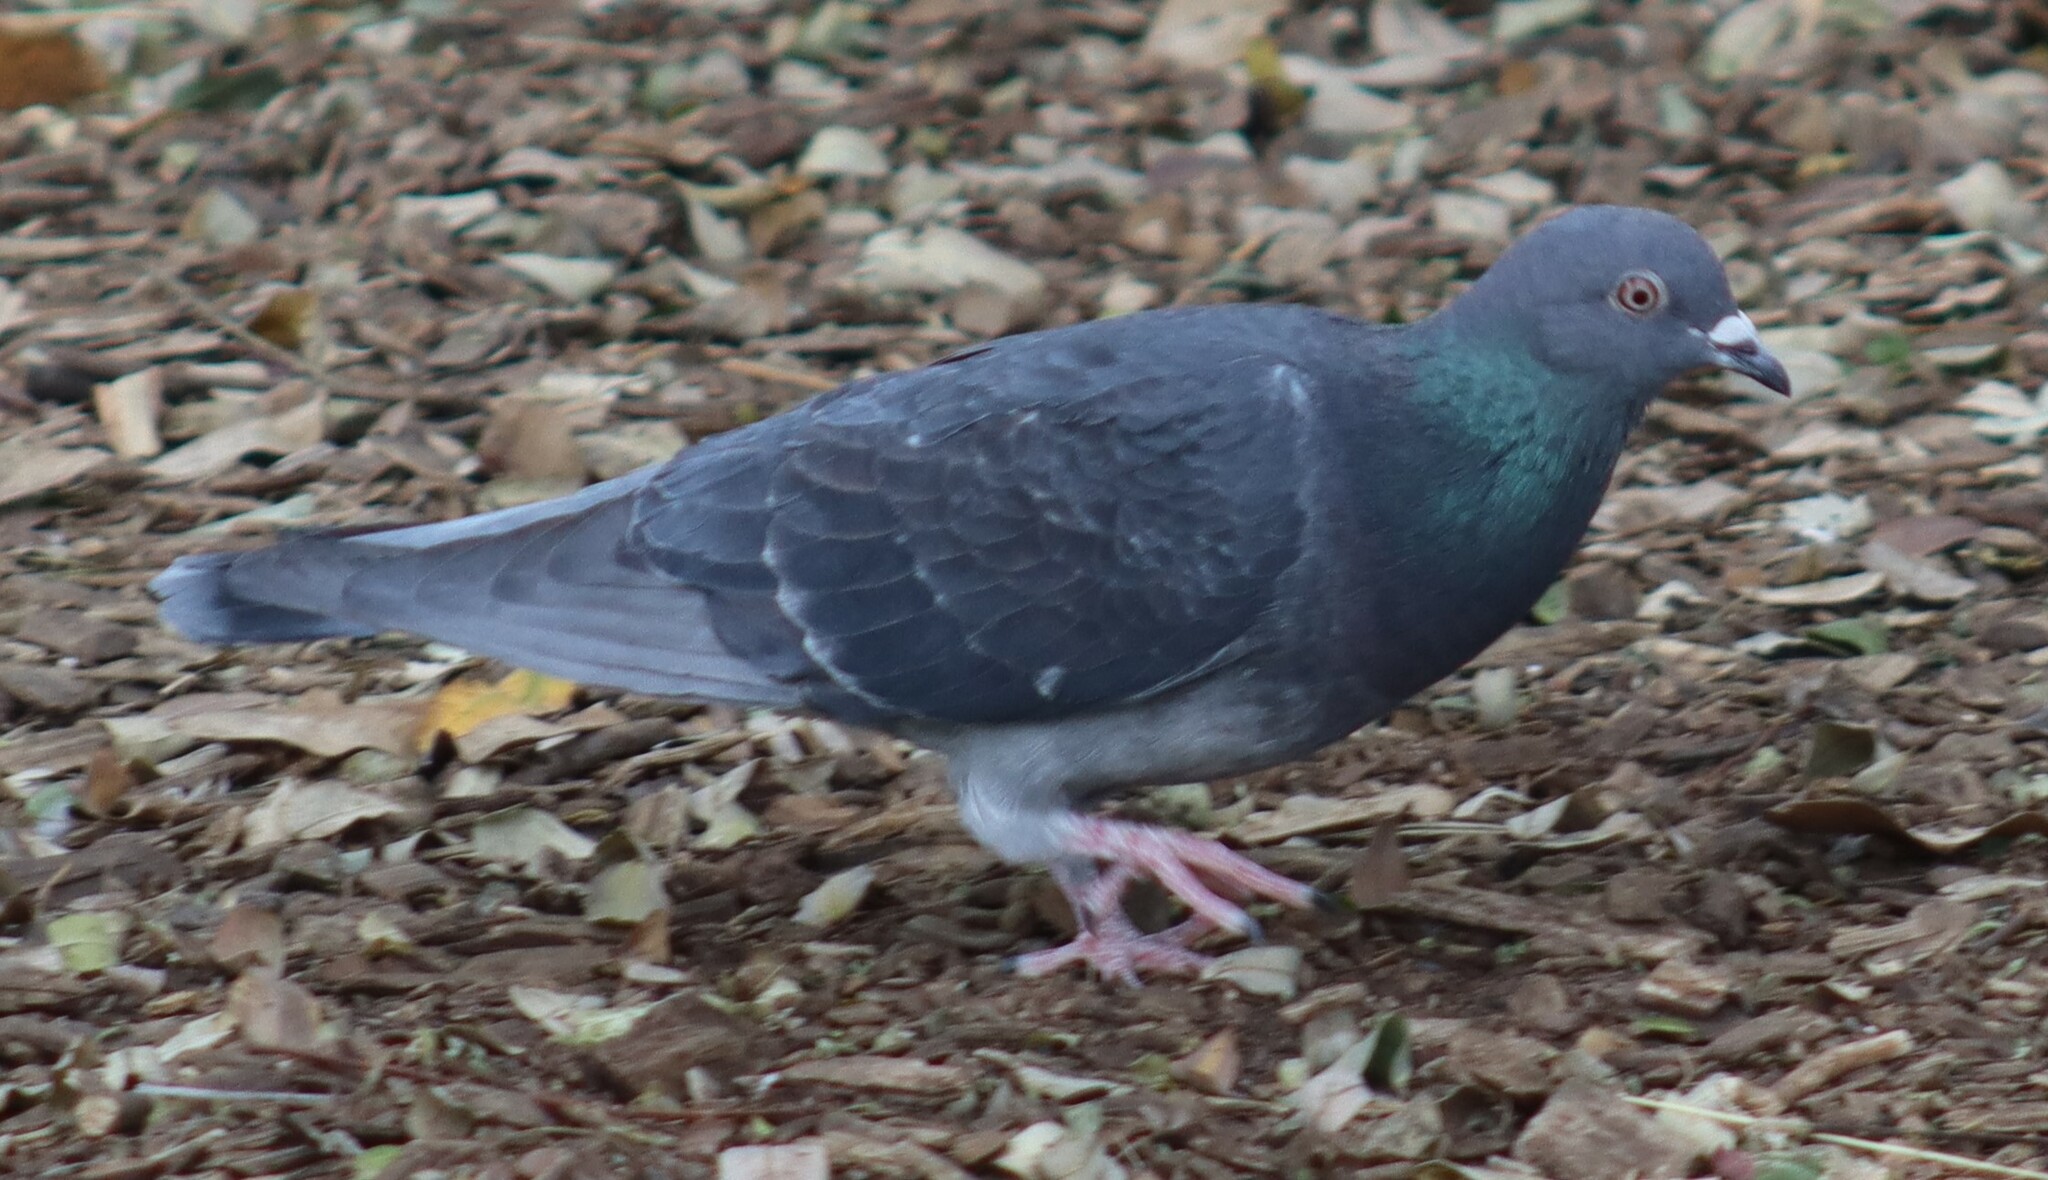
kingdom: Animalia
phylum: Chordata
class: Aves
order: Columbiformes
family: Columbidae
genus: Columba
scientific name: Columba livia
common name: Rock pigeon
